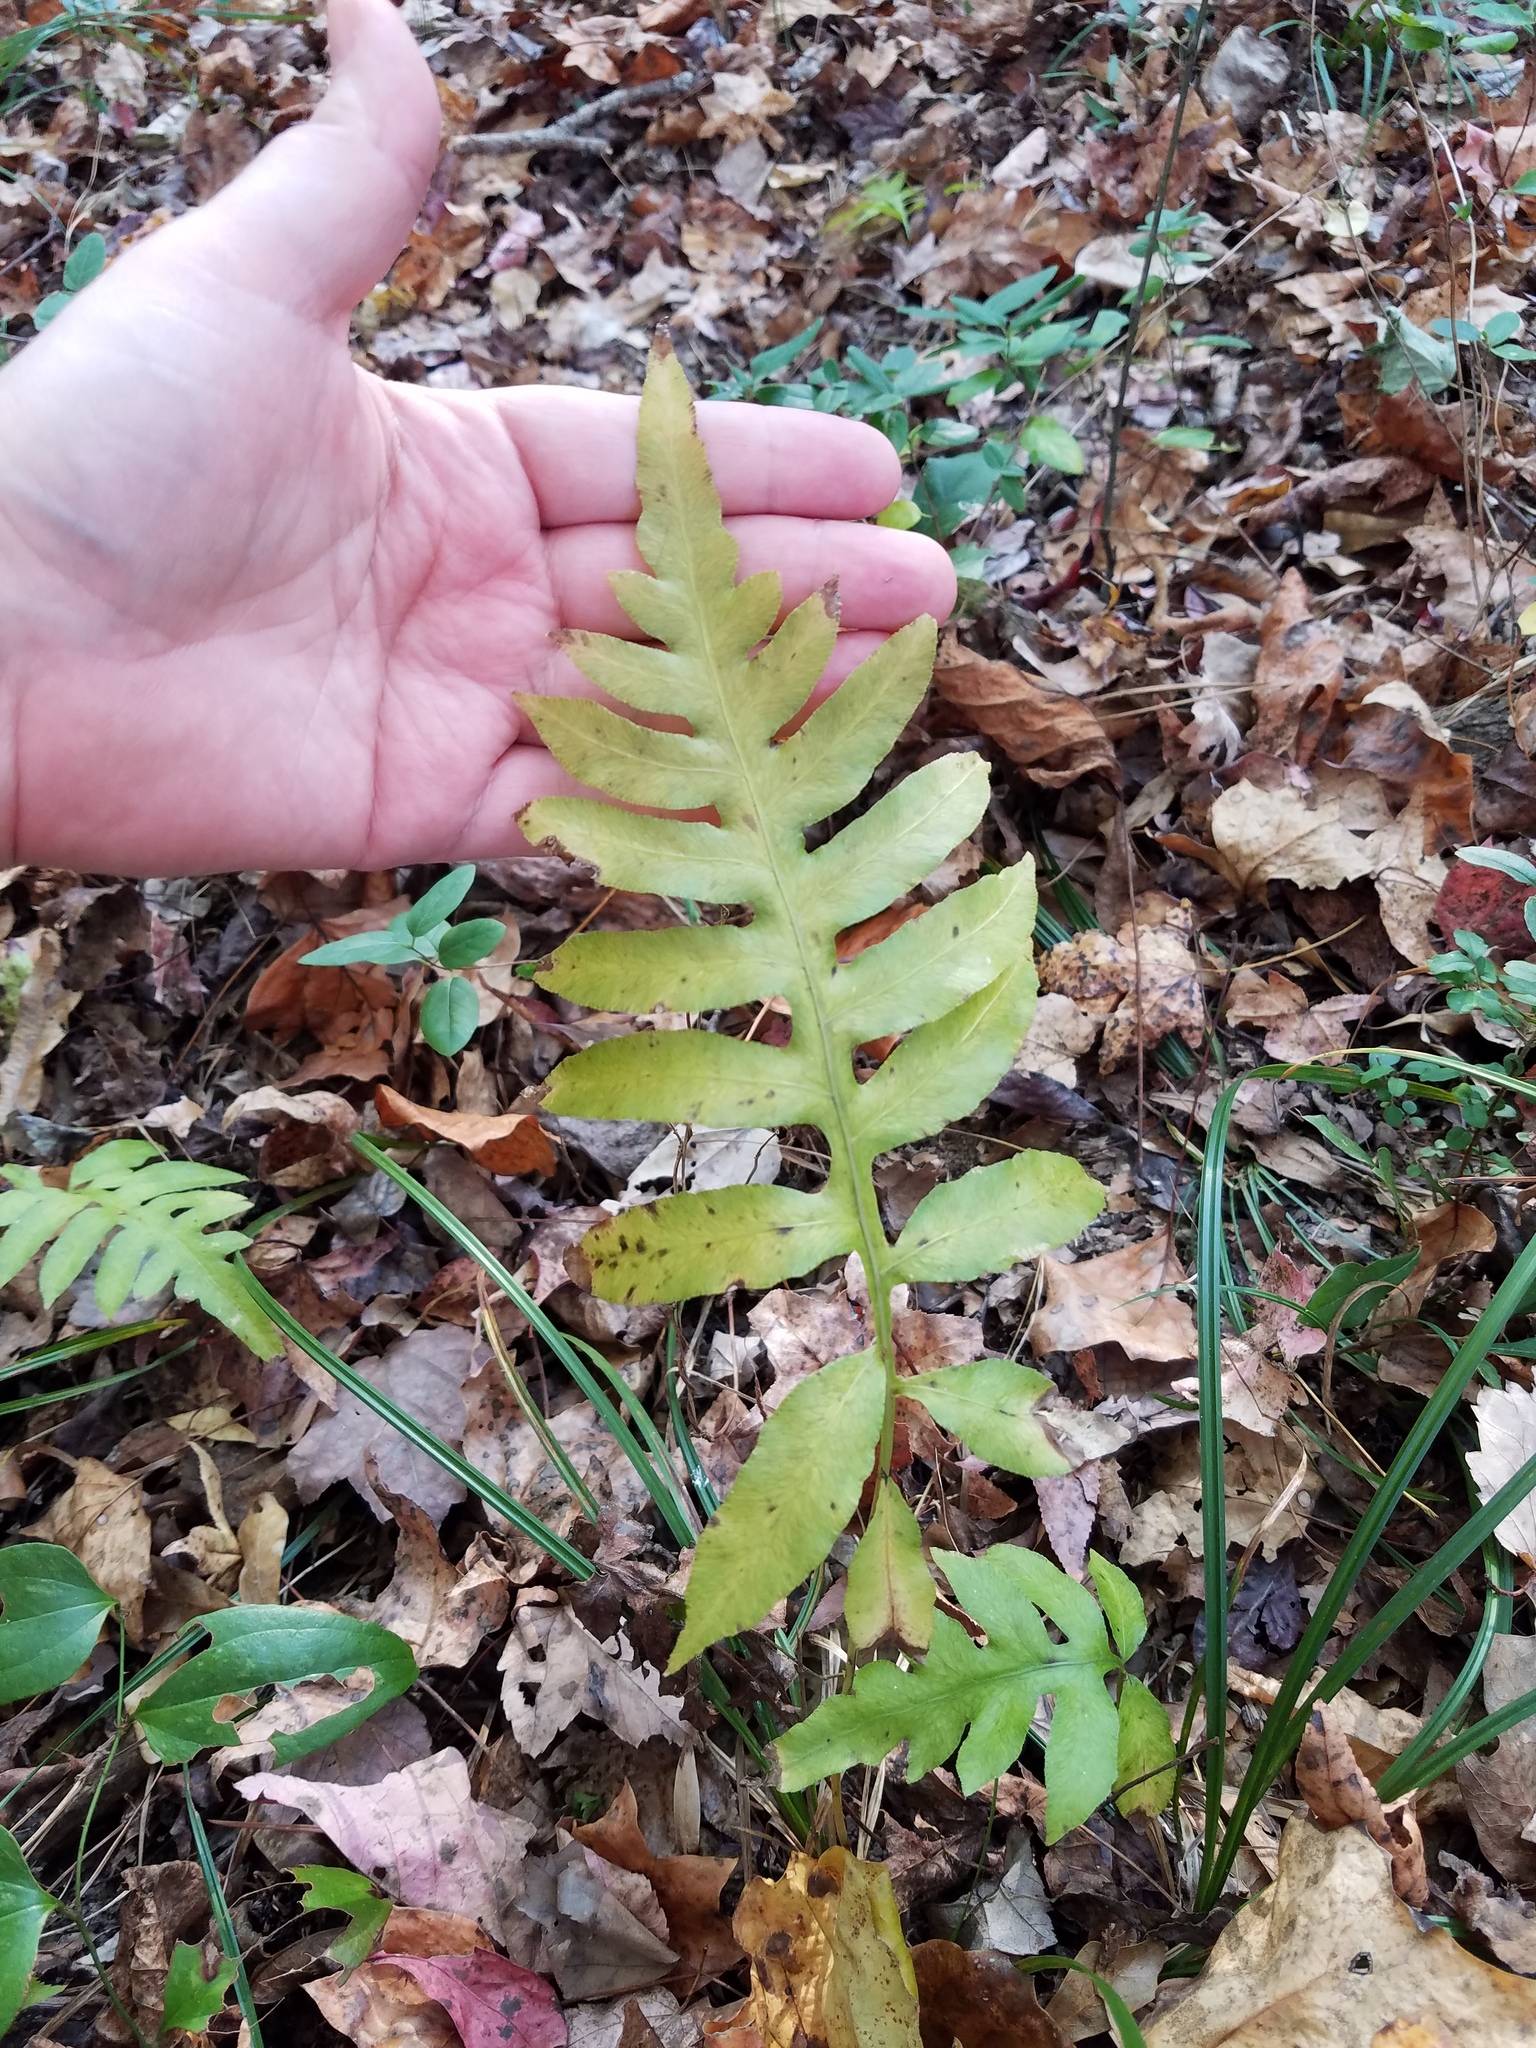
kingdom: Plantae
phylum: Tracheophyta
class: Polypodiopsida
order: Polypodiales
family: Blechnaceae
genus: Lorinseria
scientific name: Lorinseria areolata
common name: Dwarf chain fern
